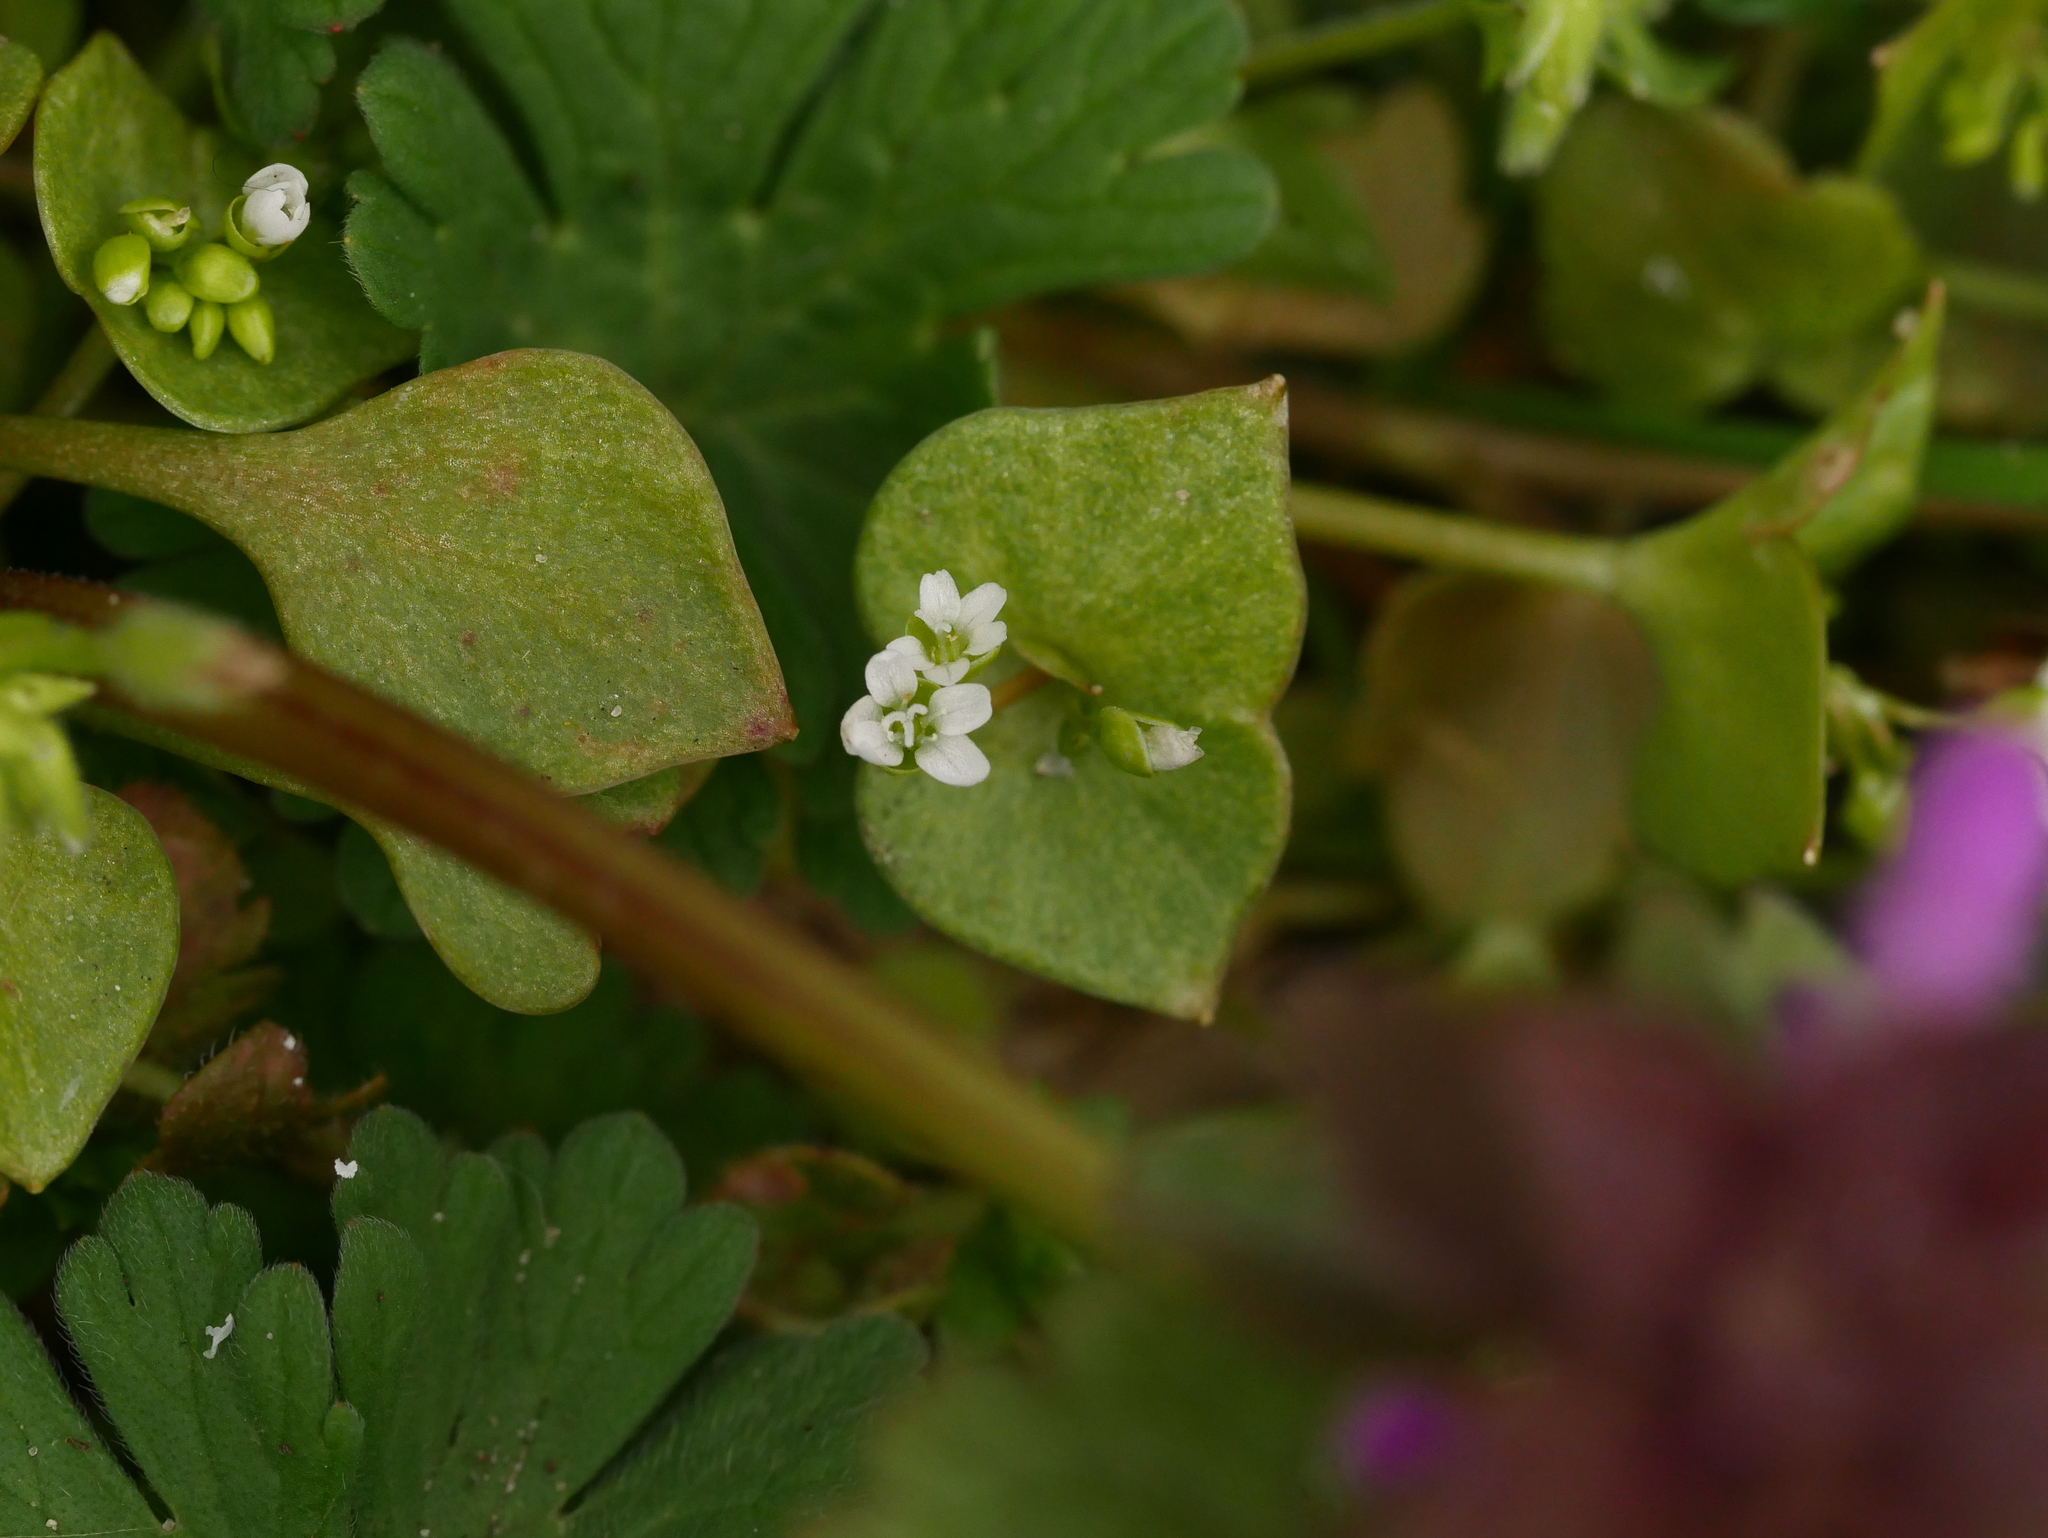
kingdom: Plantae
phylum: Tracheophyta
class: Magnoliopsida
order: Caryophyllales
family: Montiaceae
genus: Claytonia
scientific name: Claytonia perfoliata
